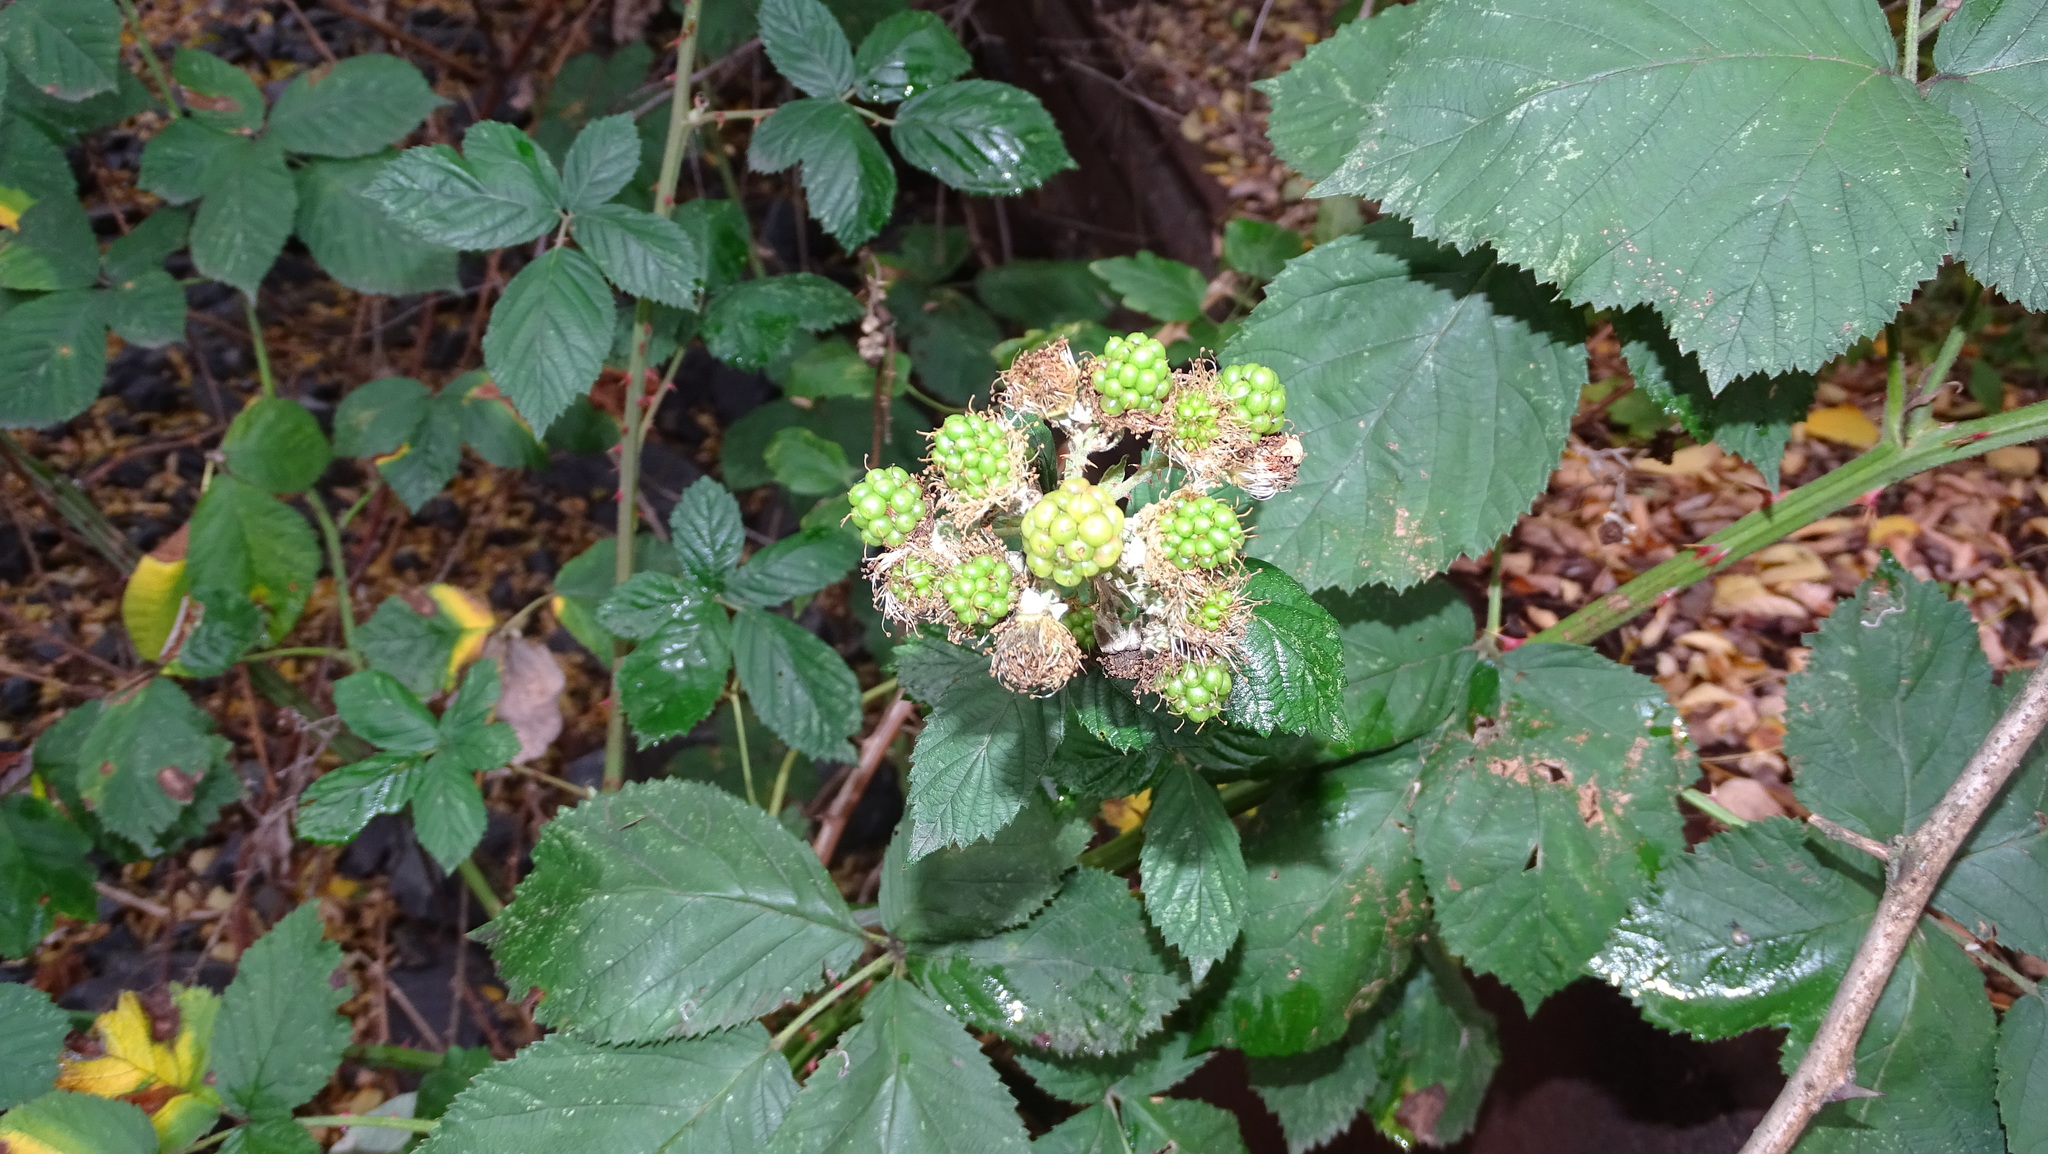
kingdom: Plantae
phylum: Tracheophyta
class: Magnoliopsida
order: Rosales
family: Rosaceae
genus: Rubus
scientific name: Rubus armeniacus
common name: Himalayan blackberry
